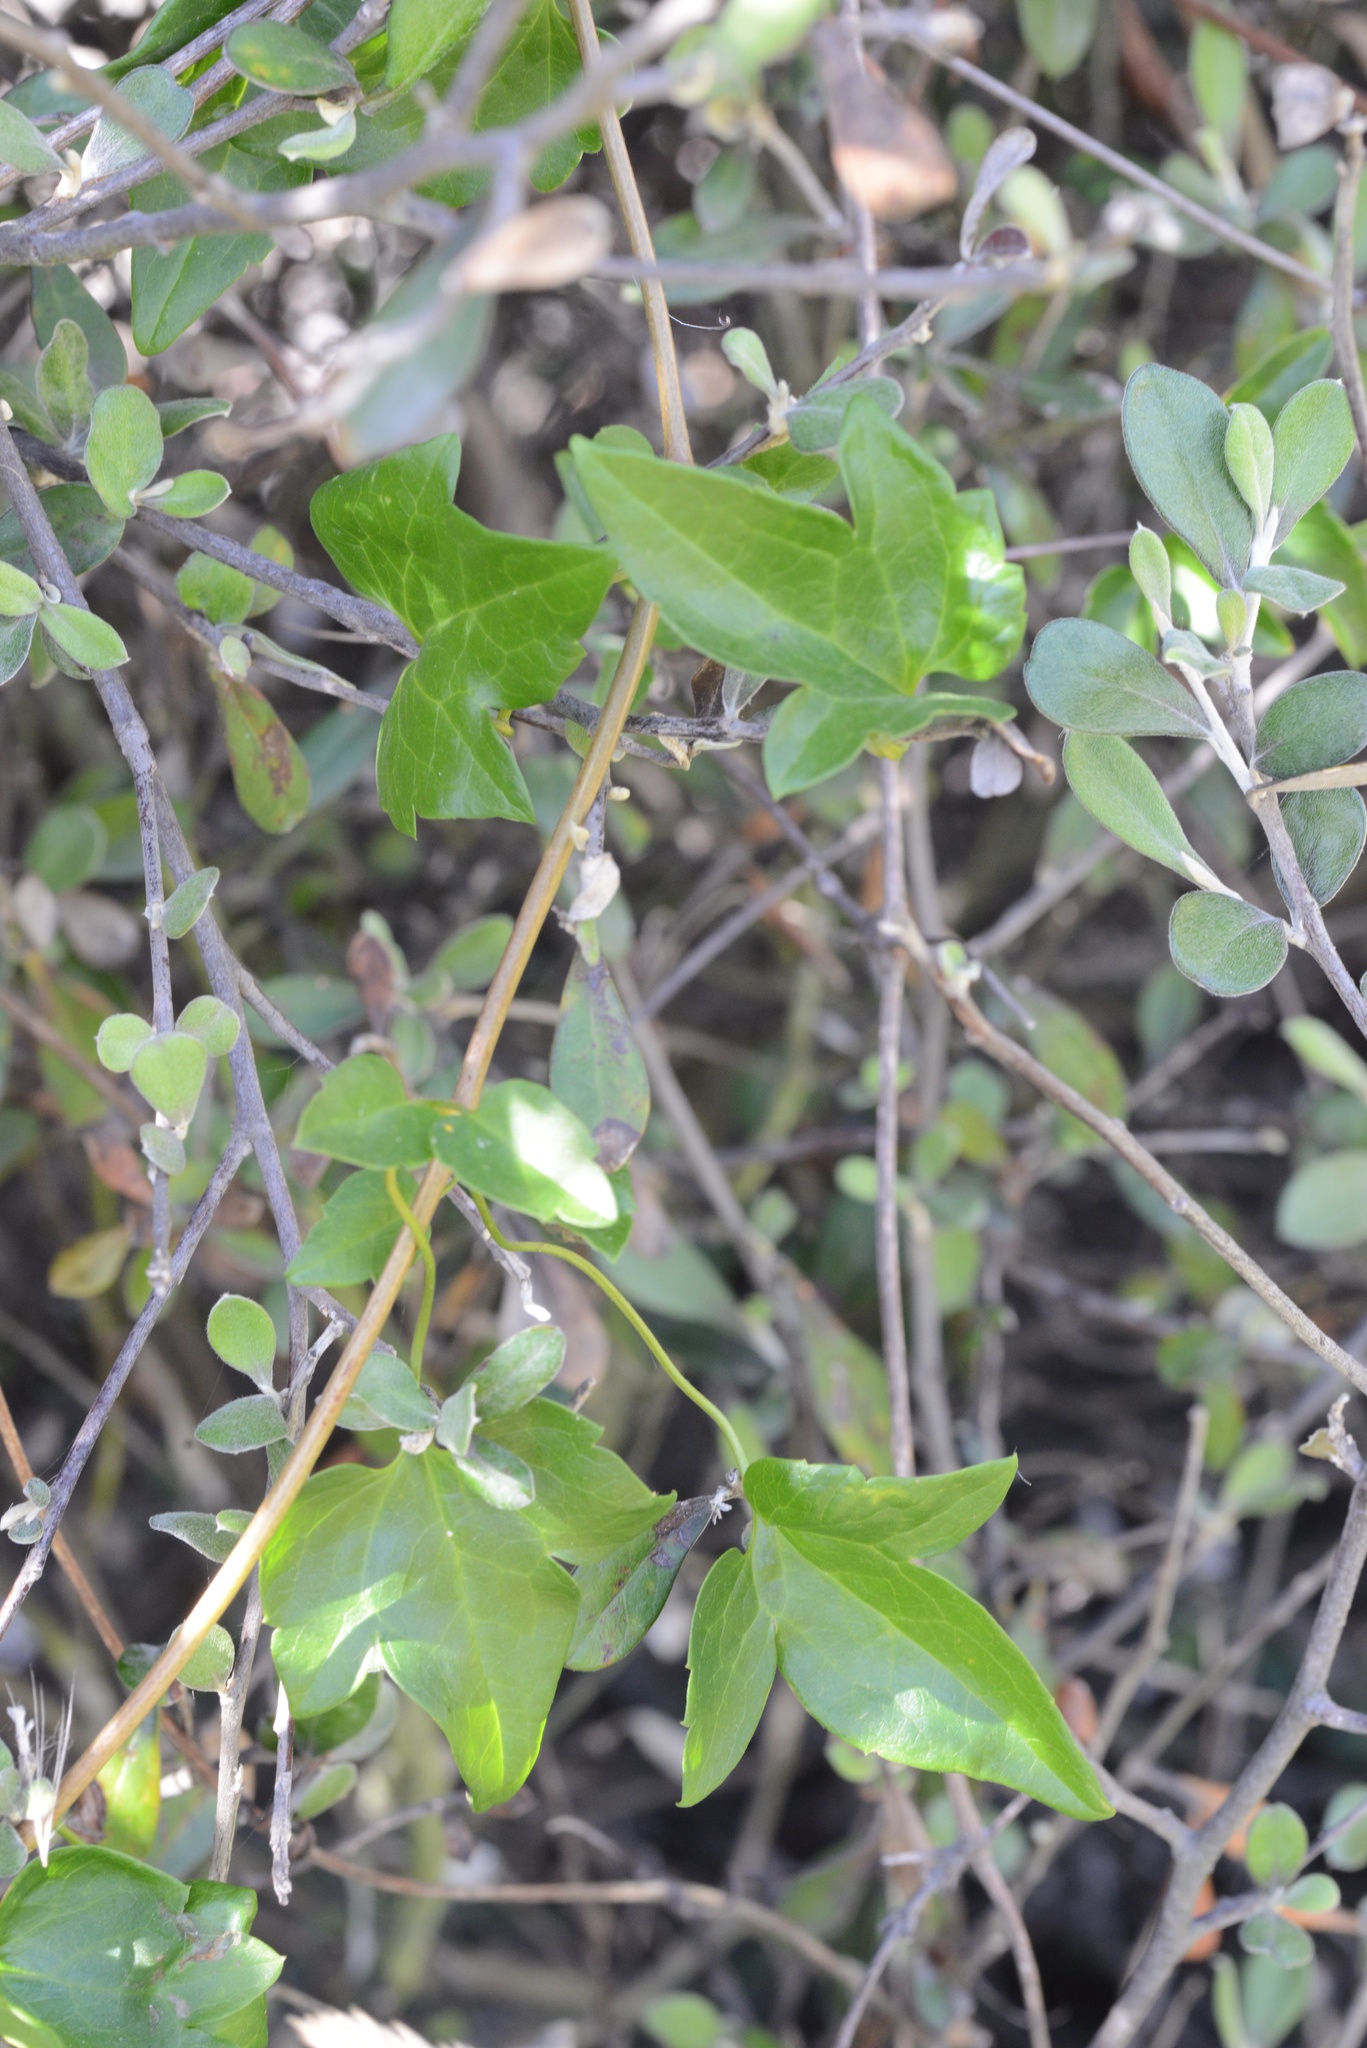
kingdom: Plantae
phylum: Tracheophyta
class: Magnoliopsida
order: Ranunculales
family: Ranunculaceae
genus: Clematis
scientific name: Clematis cirrhosa
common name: Early virgin's-bower
